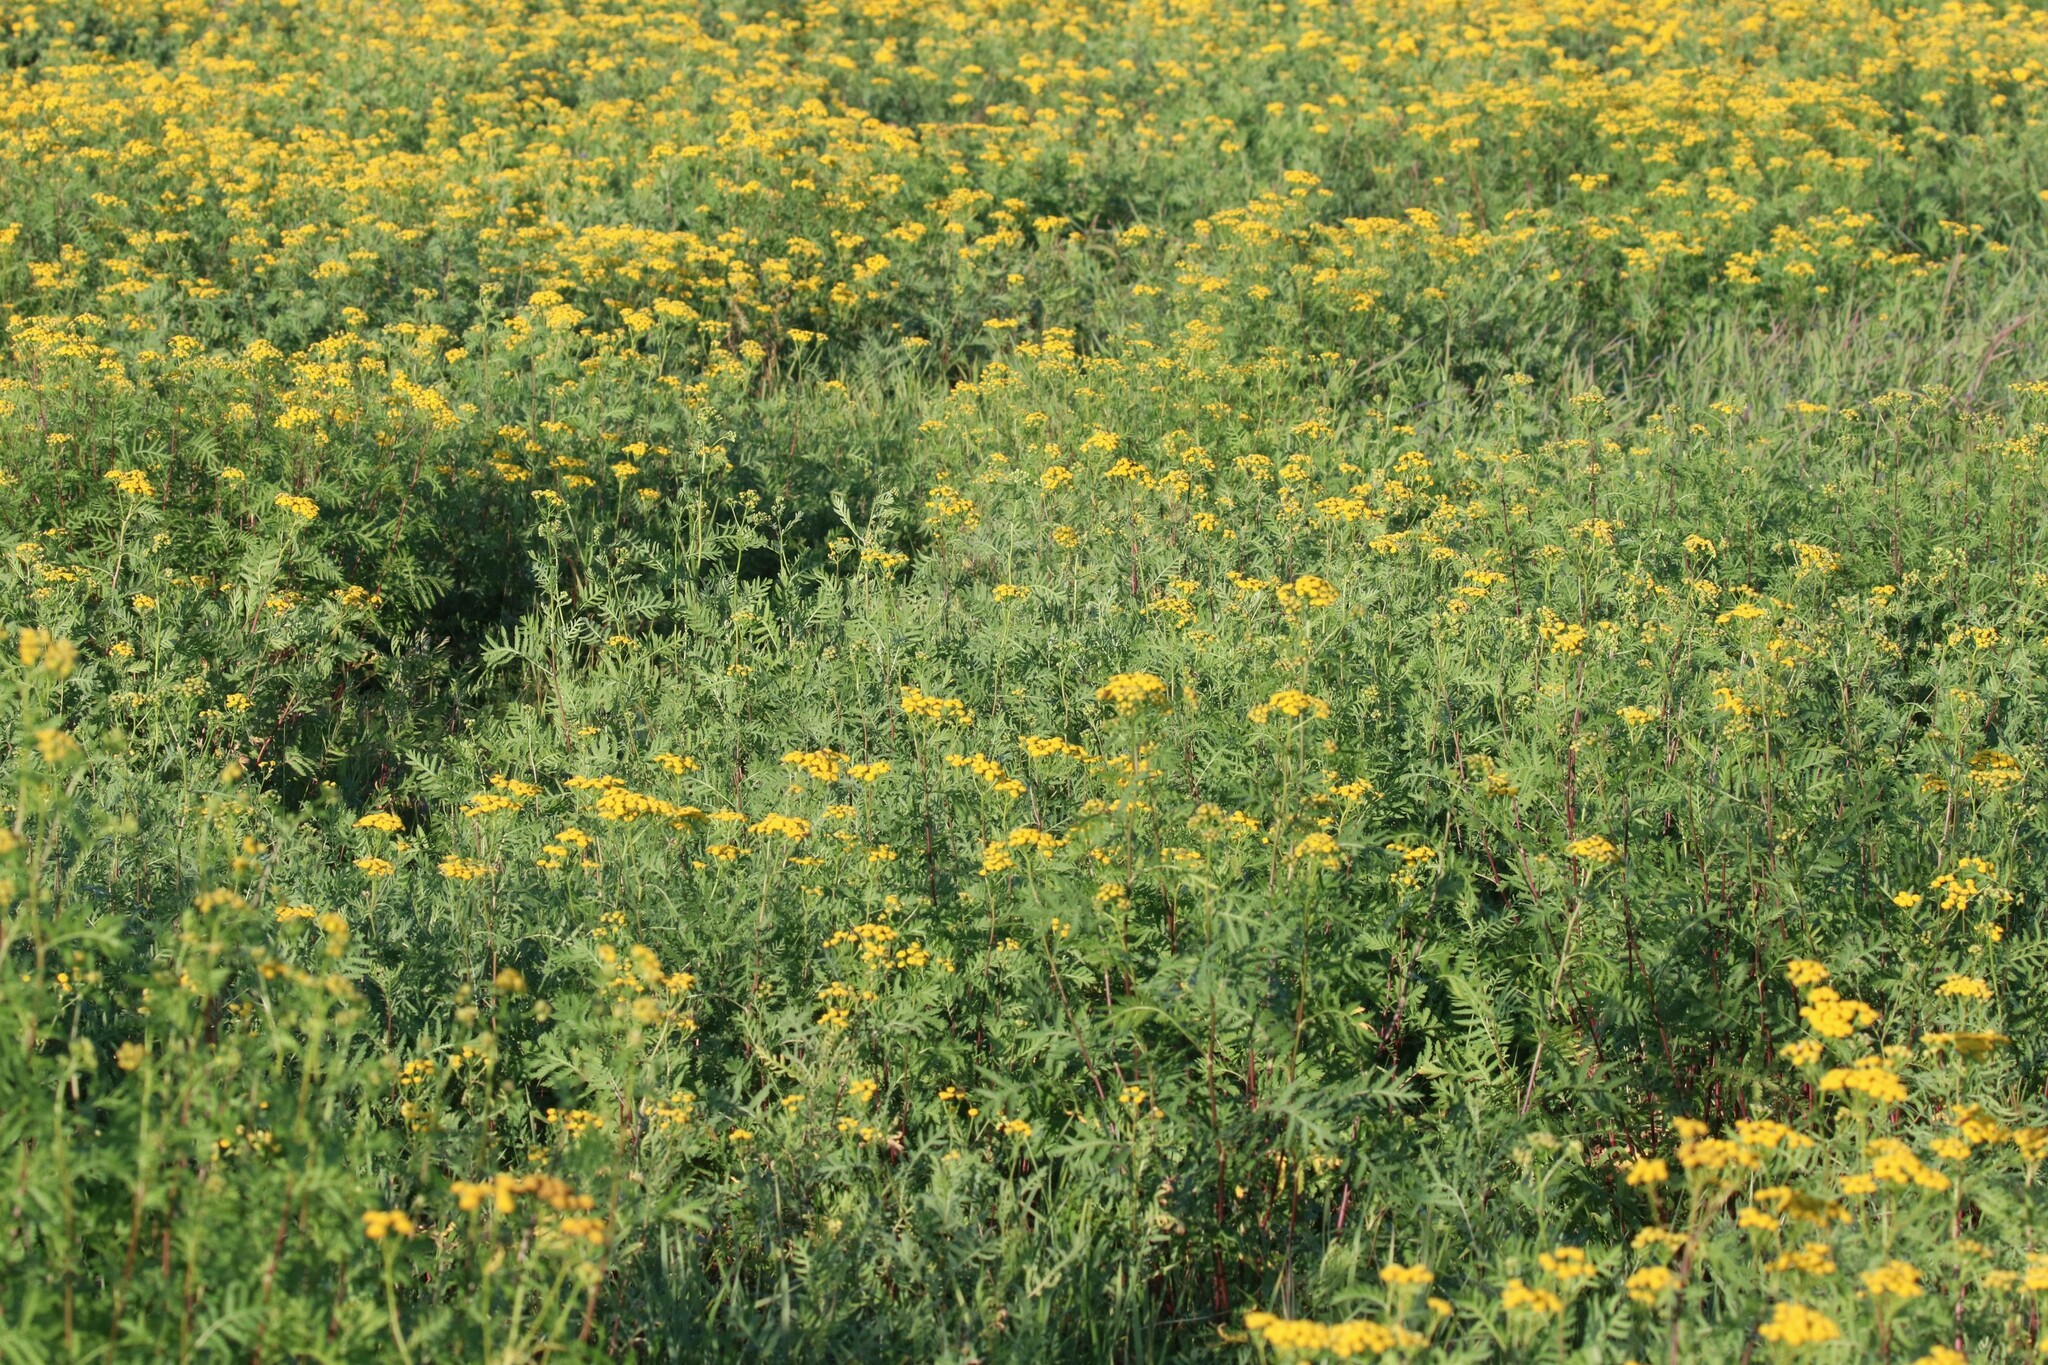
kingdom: Plantae
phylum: Tracheophyta
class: Magnoliopsida
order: Asterales
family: Asteraceae
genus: Tanacetum
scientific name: Tanacetum vulgare
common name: Common tansy
